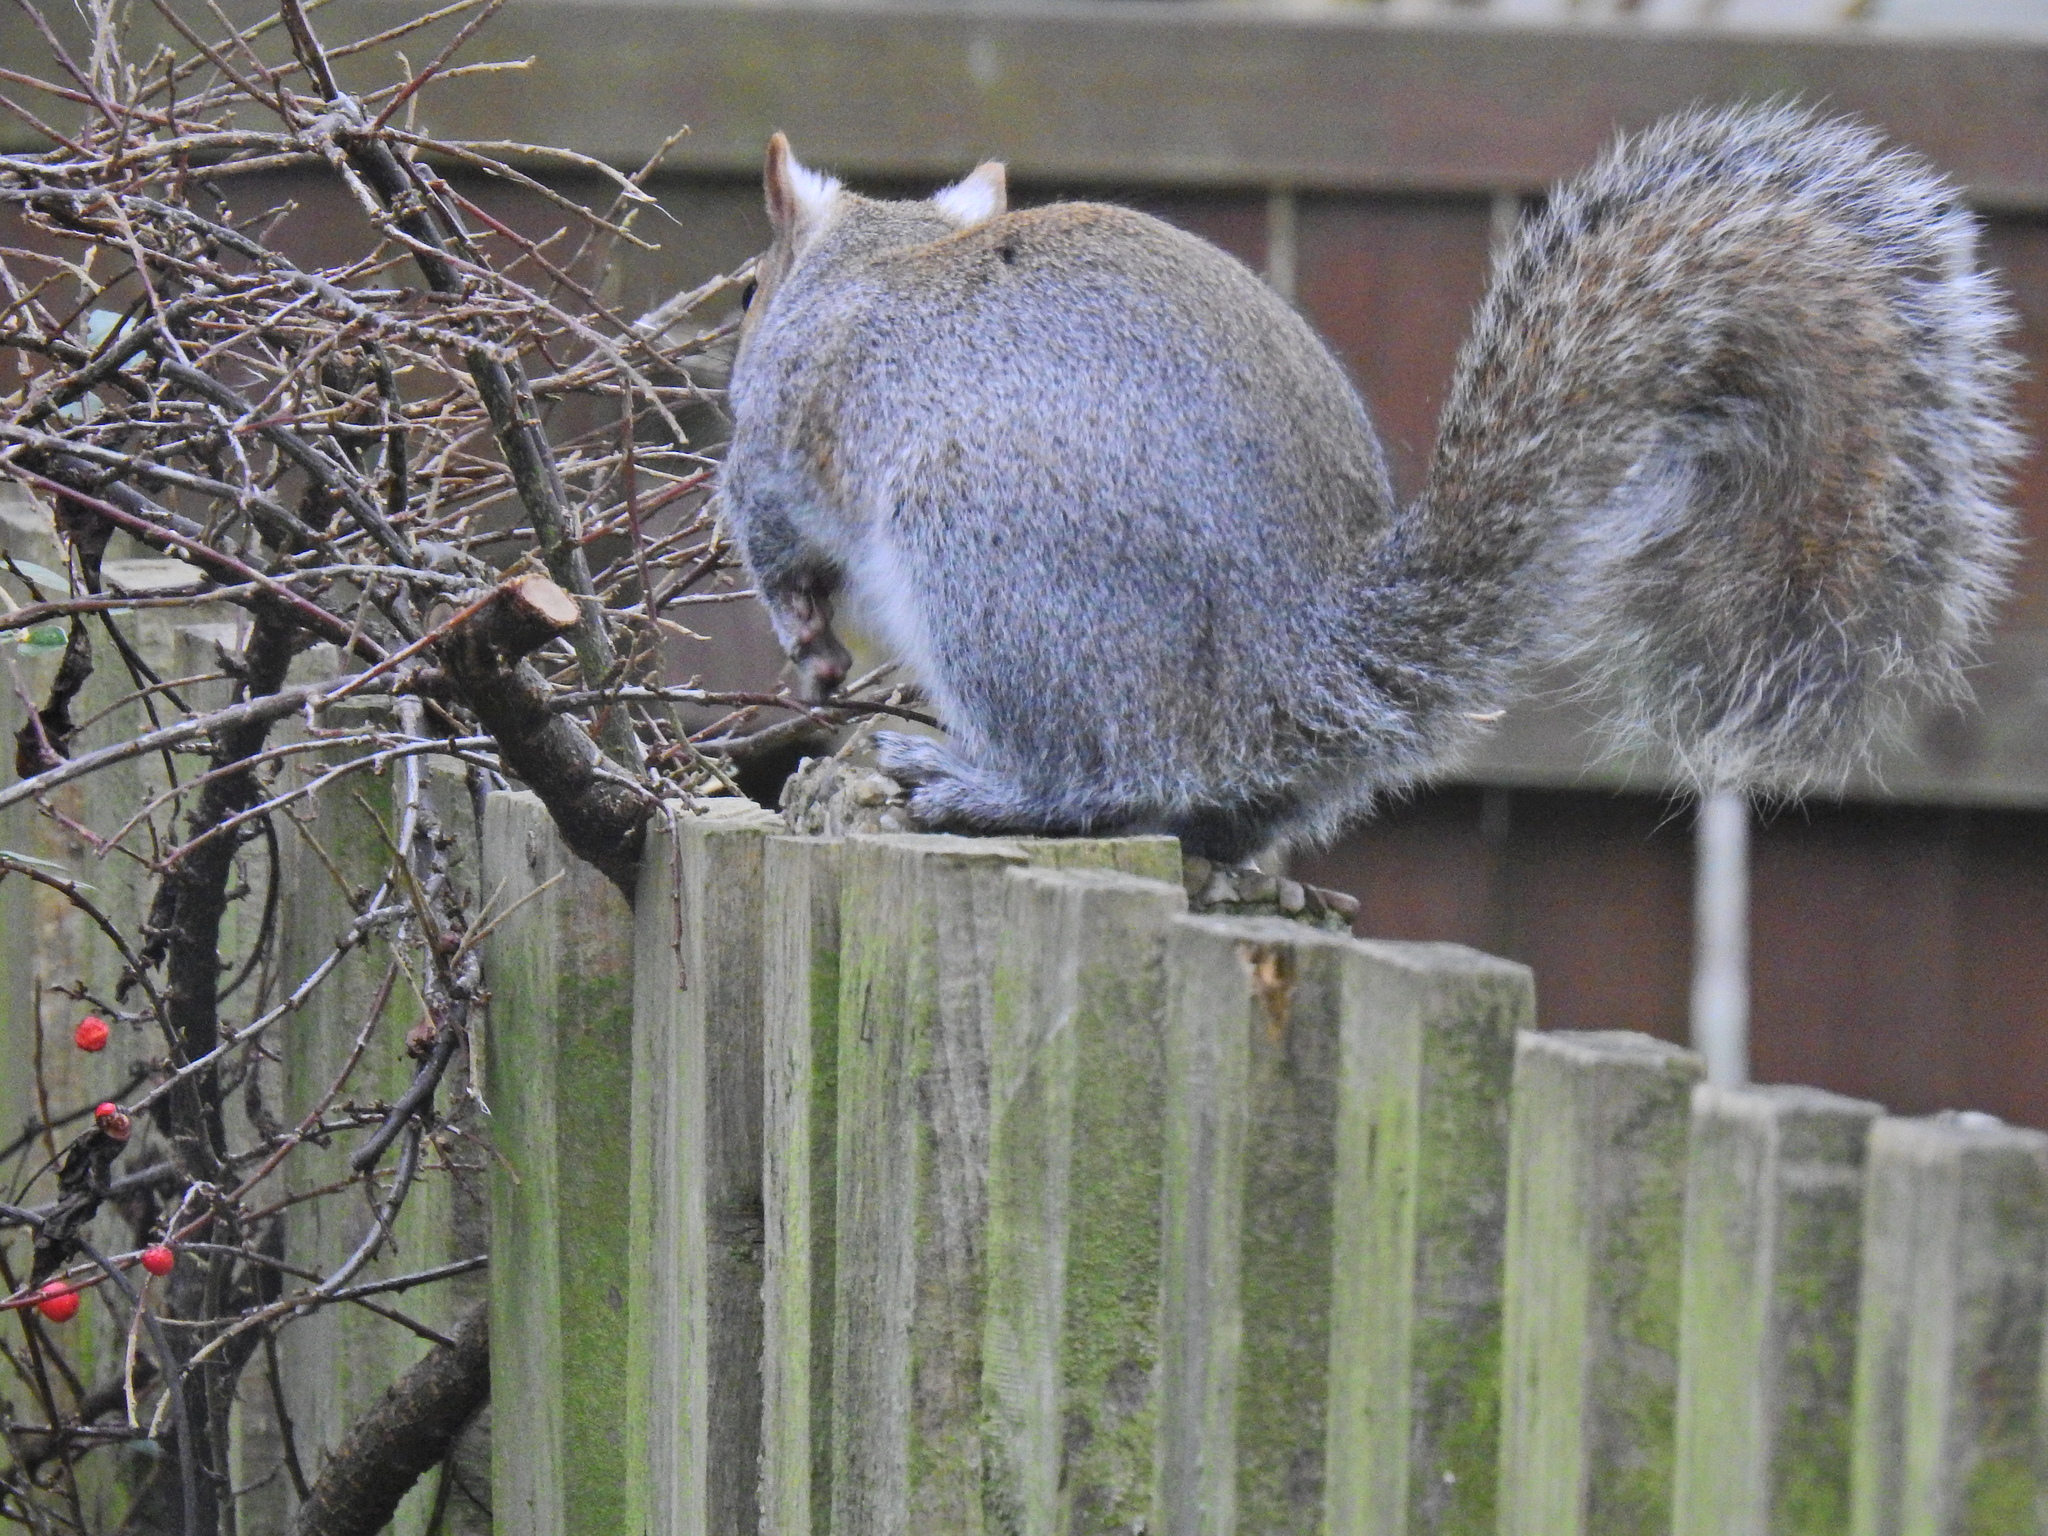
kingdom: Animalia
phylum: Chordata
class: Mammalia
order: Rodentia
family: Sciuridae
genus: Sciurus
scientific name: Sciurus carolinensis
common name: Eastern gray squirrel
